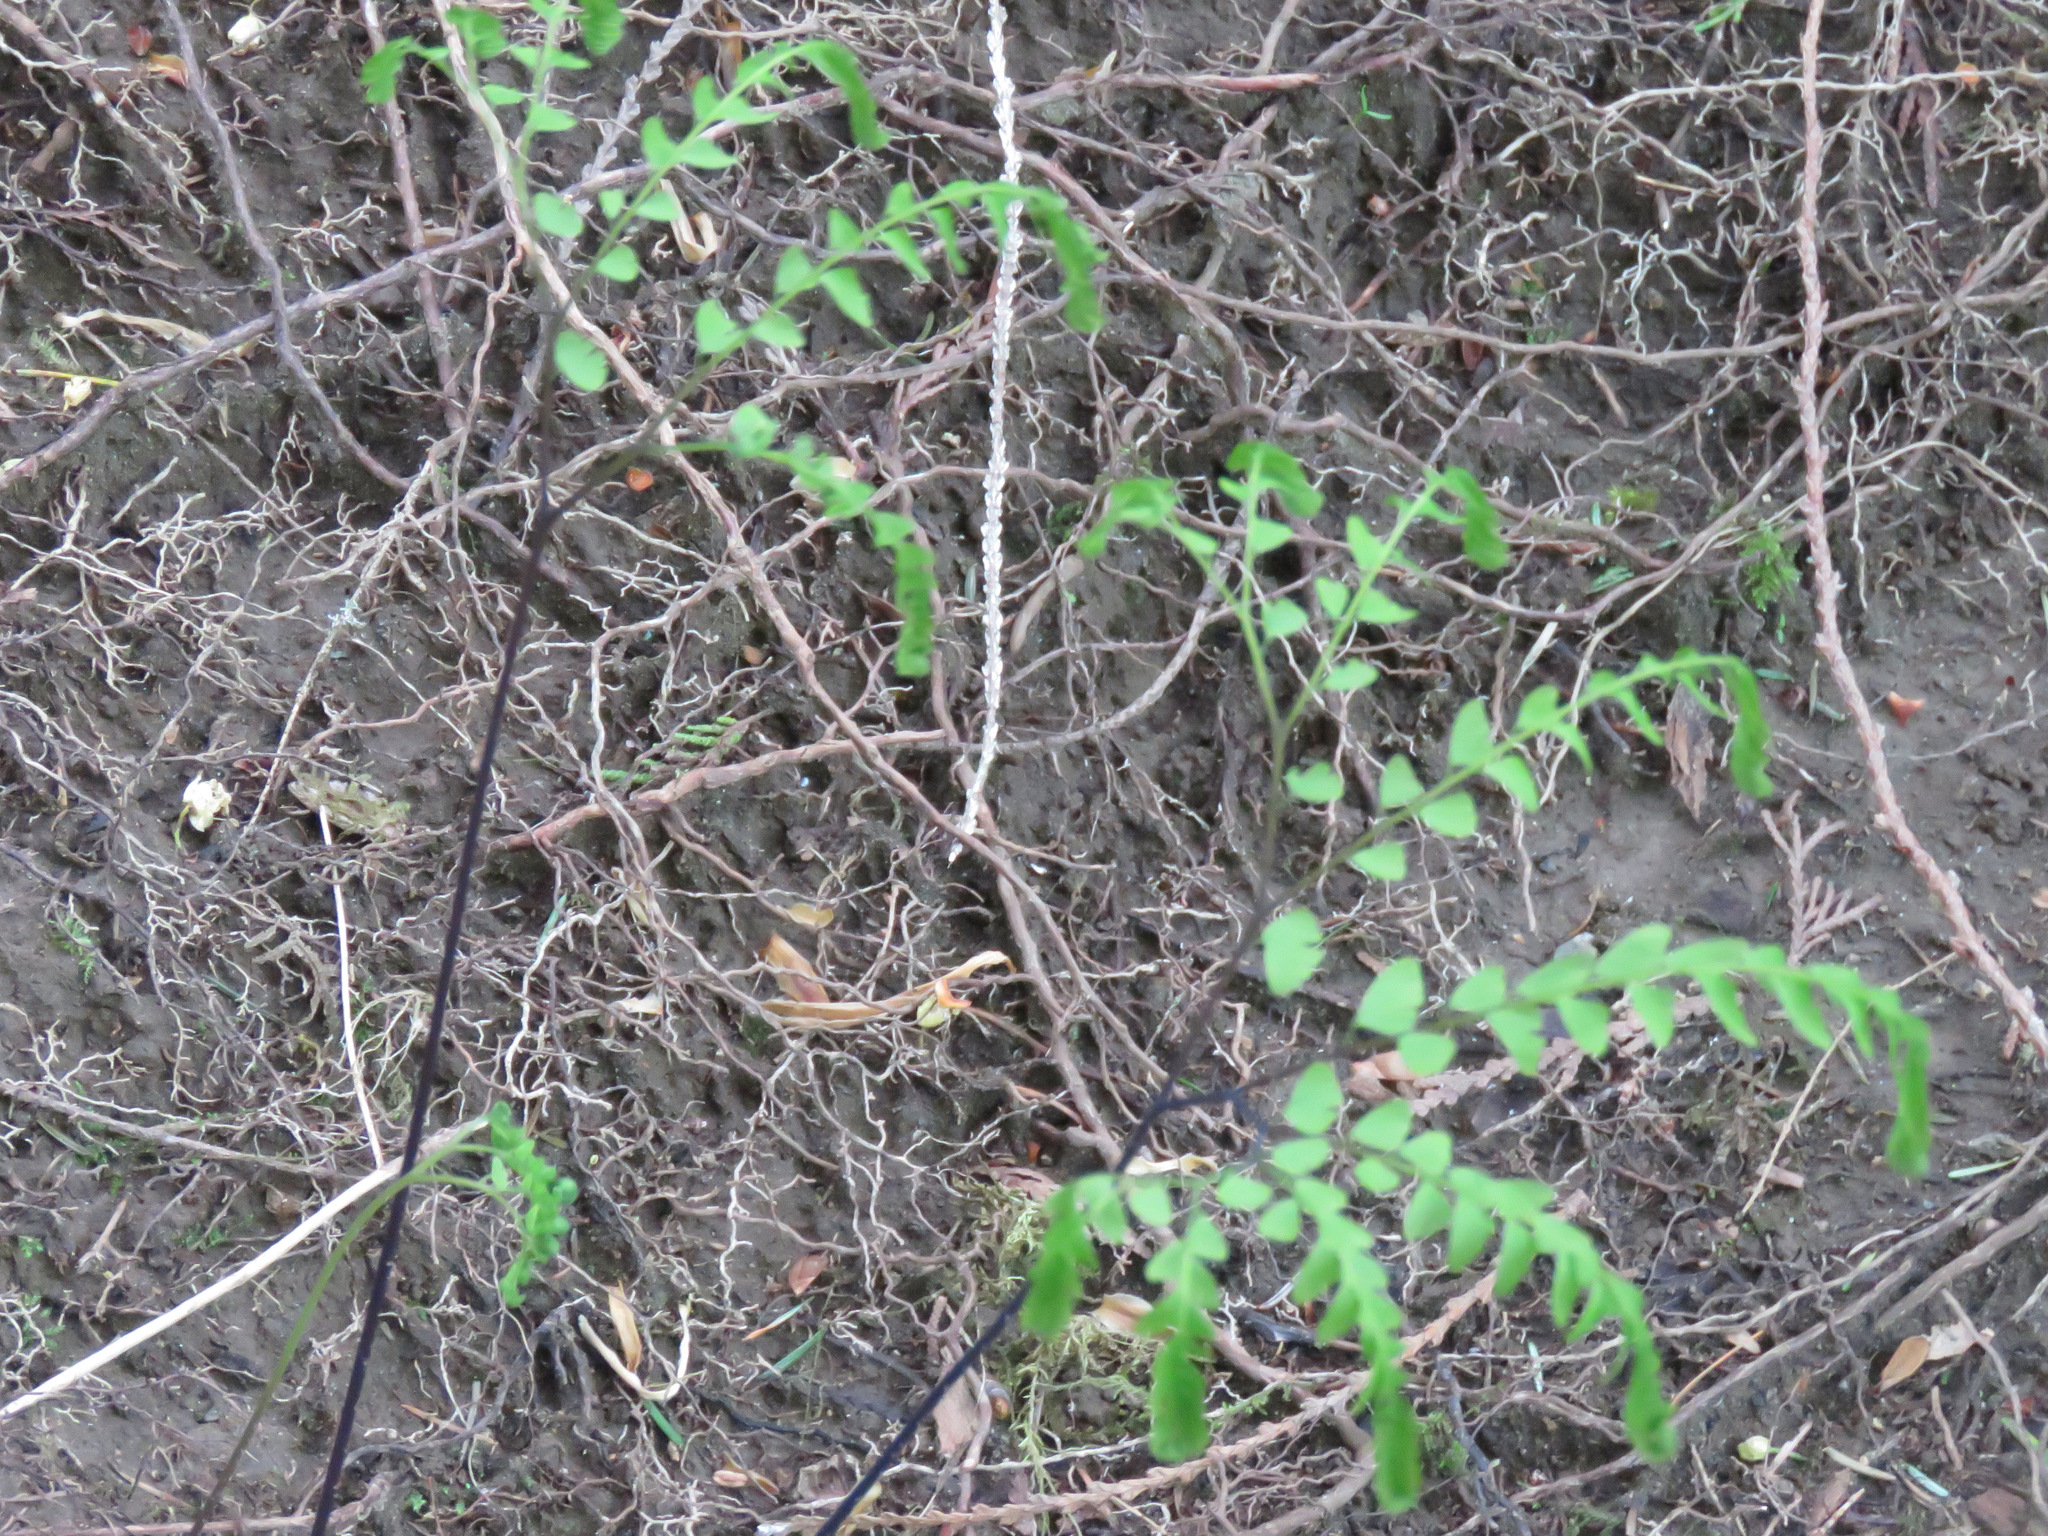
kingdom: Plantae
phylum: Tracheophyta
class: Polypodiopsida
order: Polypodiales
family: Pteridaceae
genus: Adiantum
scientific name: Adiantum aleuticum
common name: Aleutian maidenhair fern
